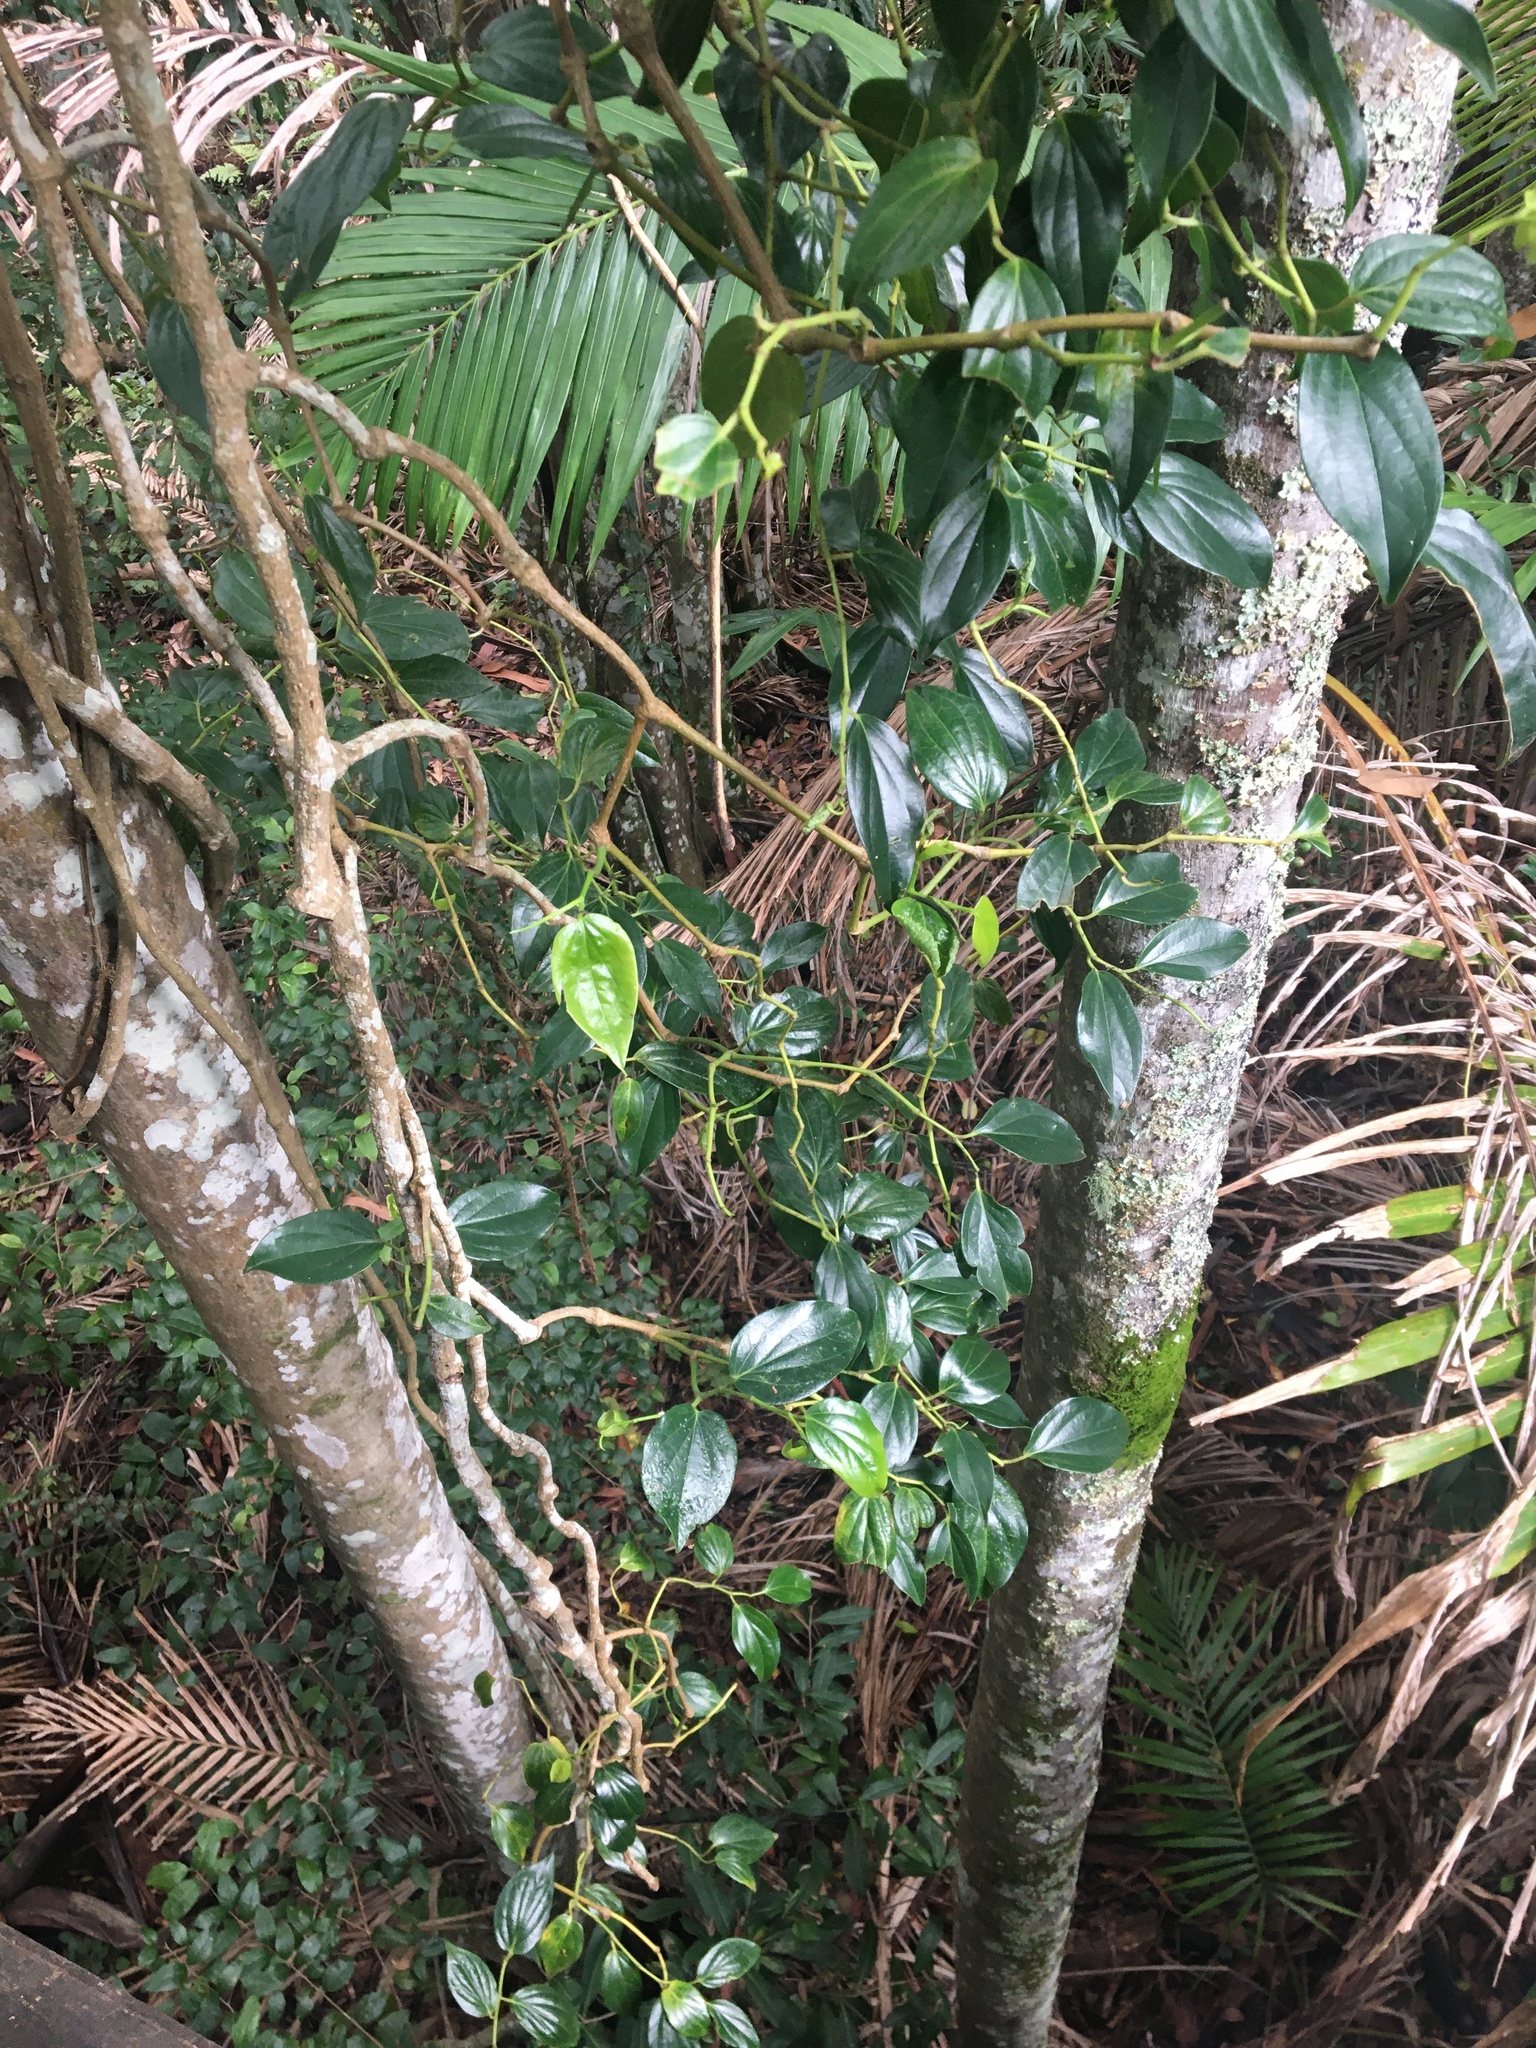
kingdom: Plantae
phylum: Tracheophyta
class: Magnoliopsida
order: Piperales
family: Piperaceae
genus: Piper
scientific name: Piper hederaceum
